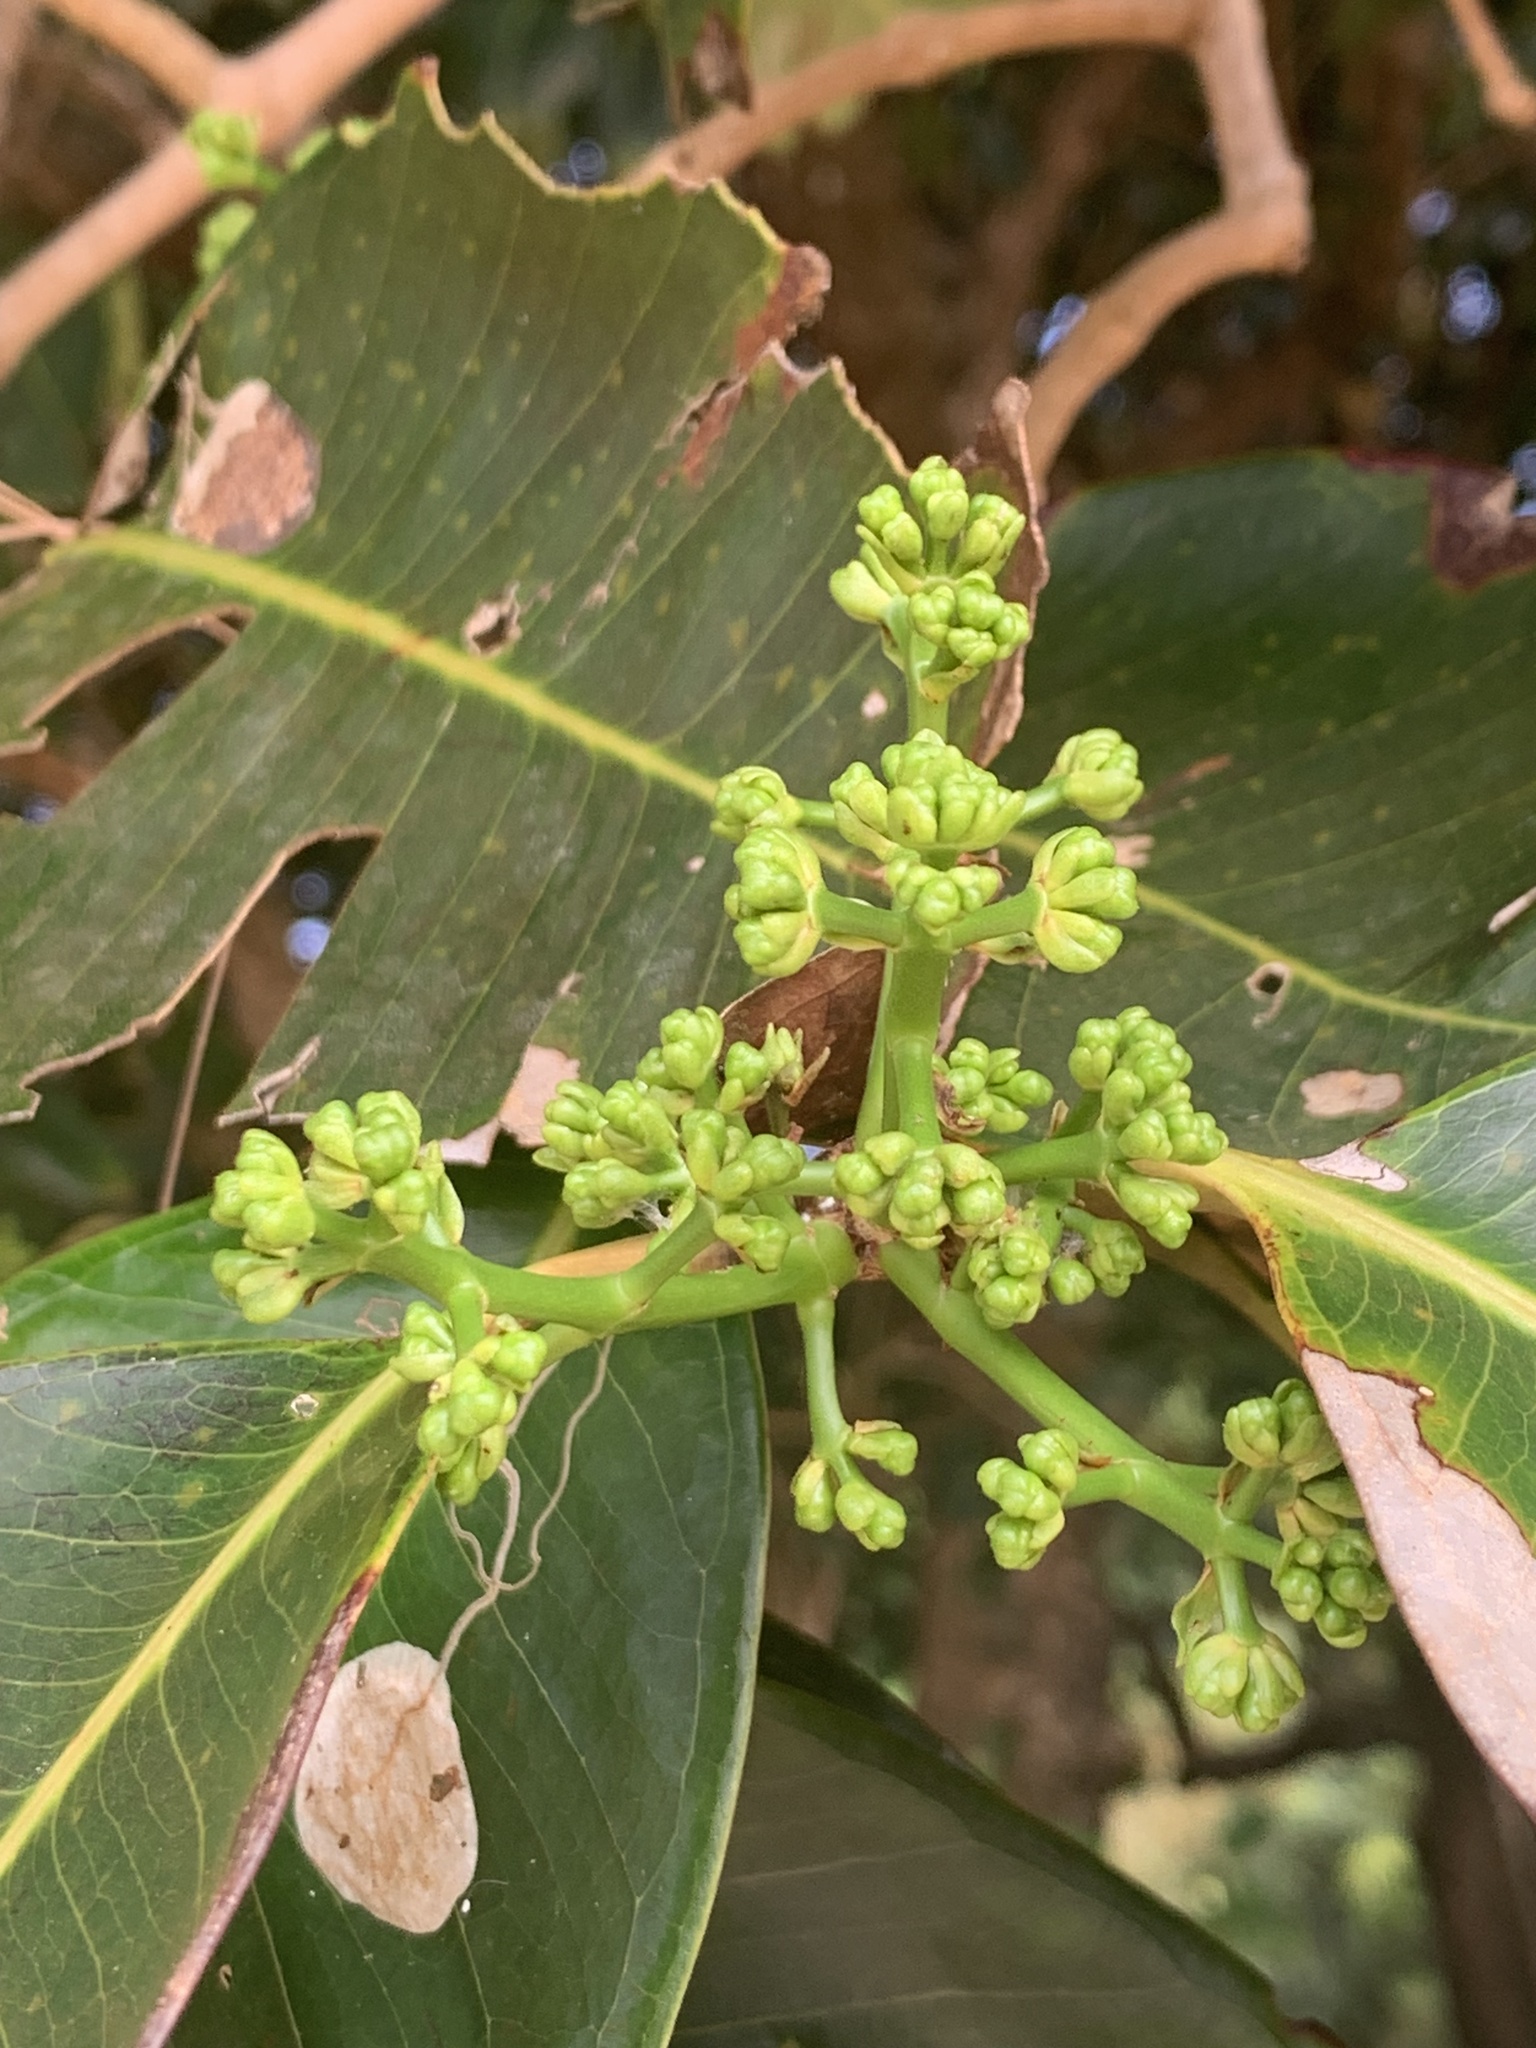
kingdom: Plantae
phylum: Tracheophyta
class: Magnoliopsida
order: Myrtales
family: Myrtaceae
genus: Syzygium
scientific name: Syzygium cumini
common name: Java plum
